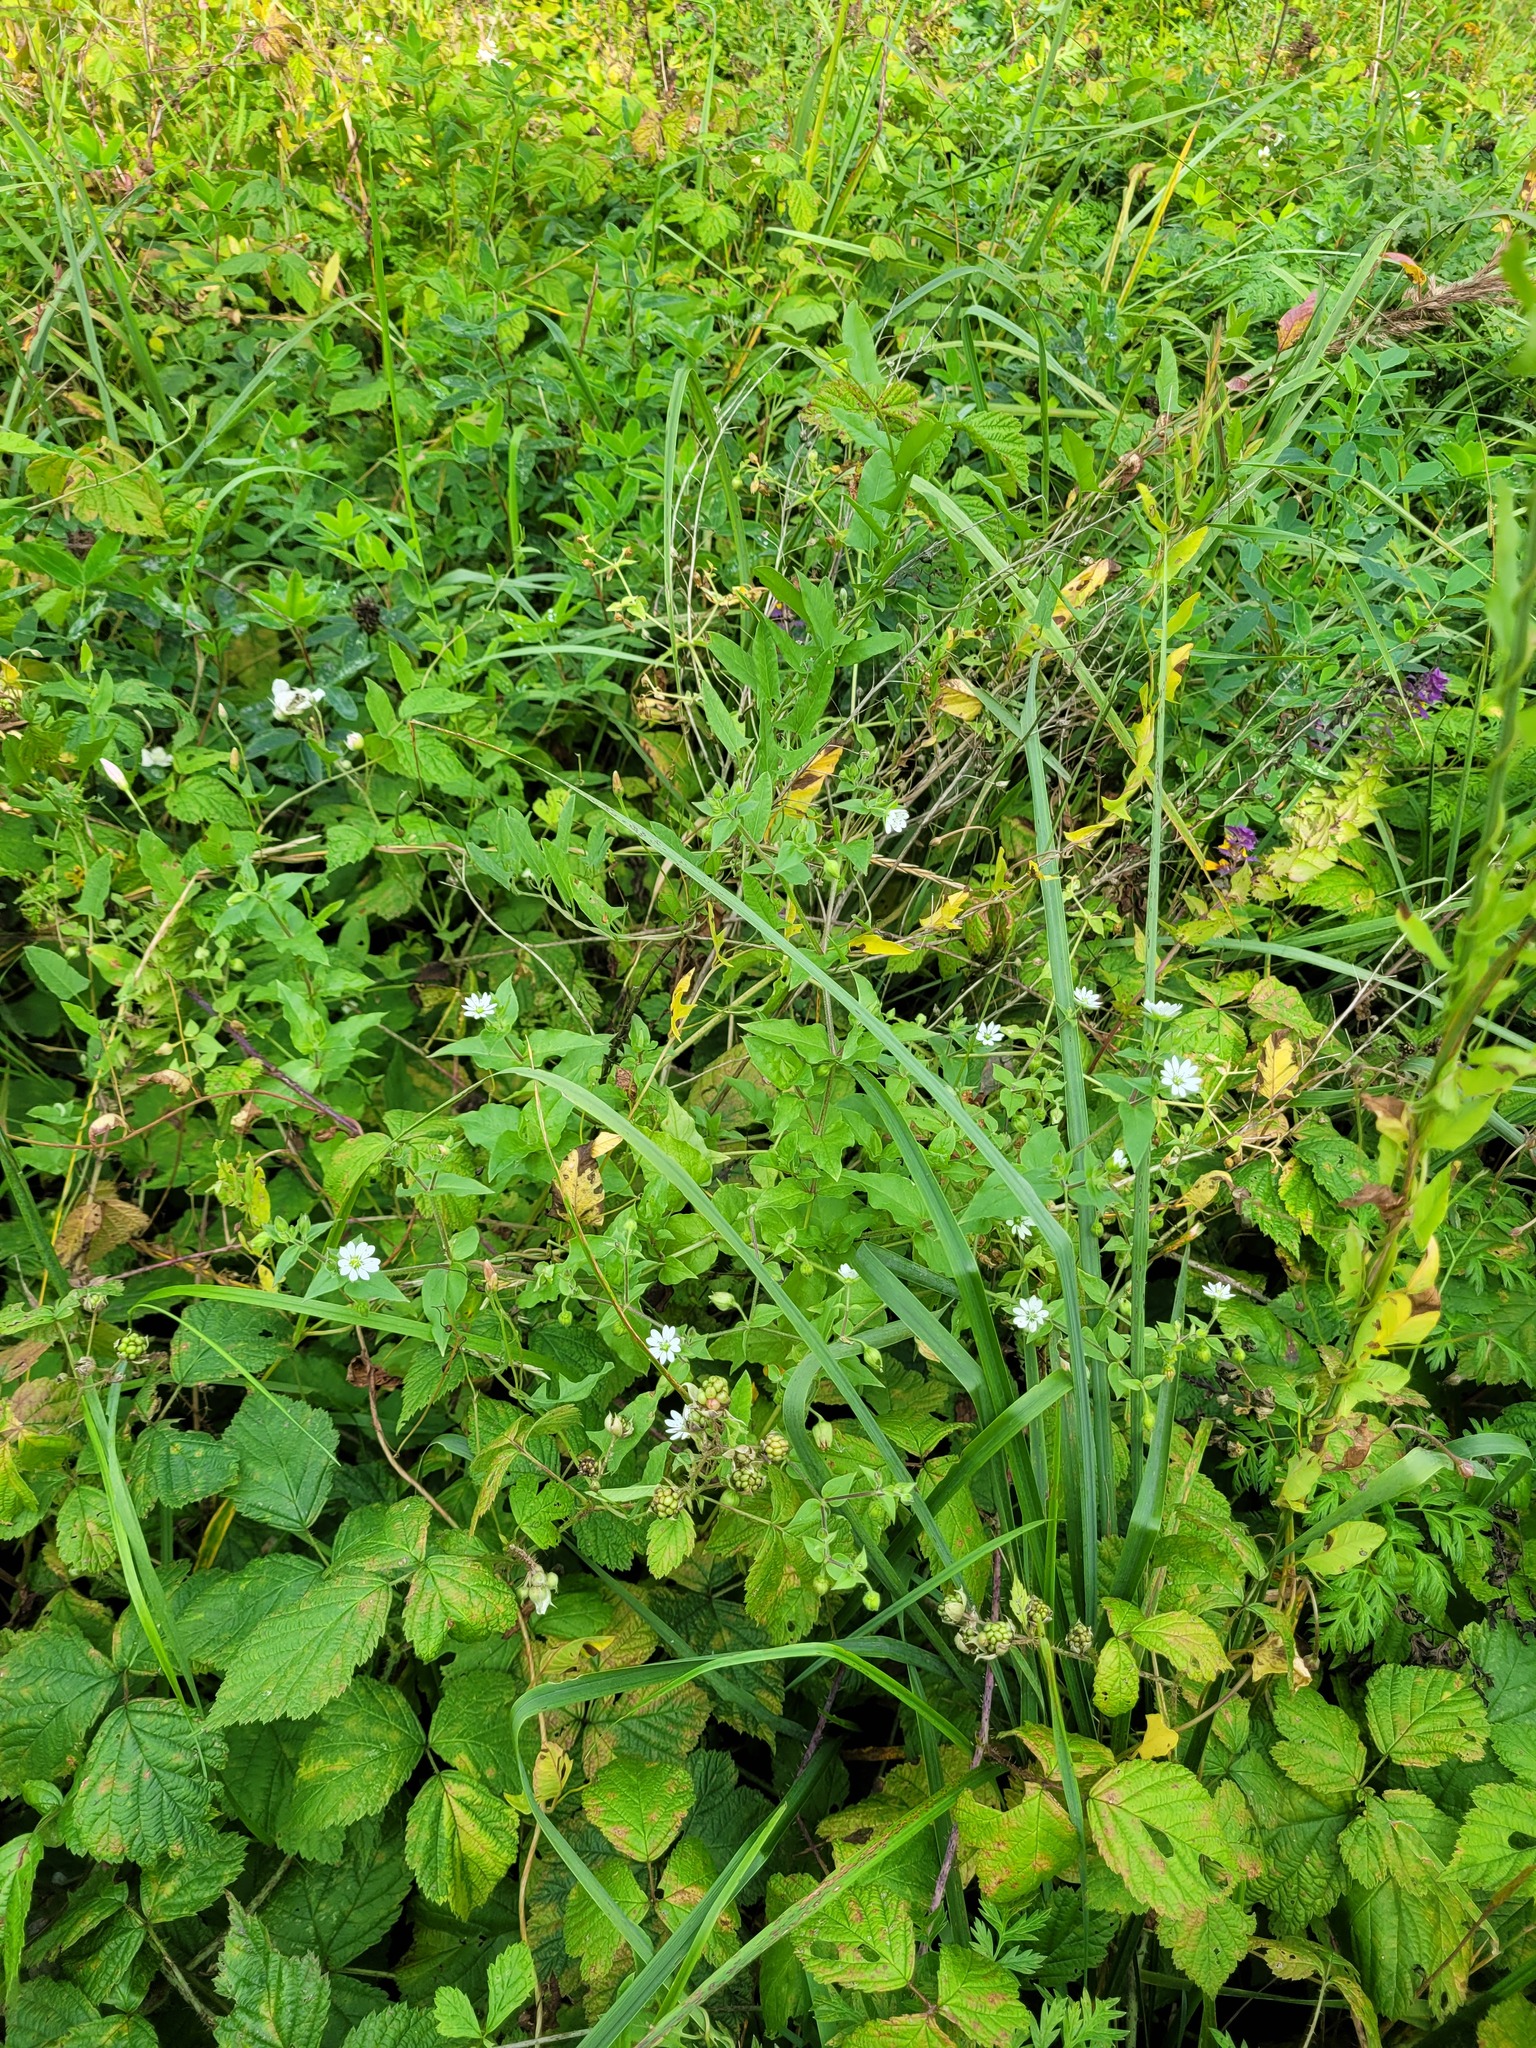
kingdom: Plantae
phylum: Tracheophyta
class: Magnoliopsida
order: Caryophyllales
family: Caryophyllaceae
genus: Stellaria
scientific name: Stellaria aquatica
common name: Water chickweed
